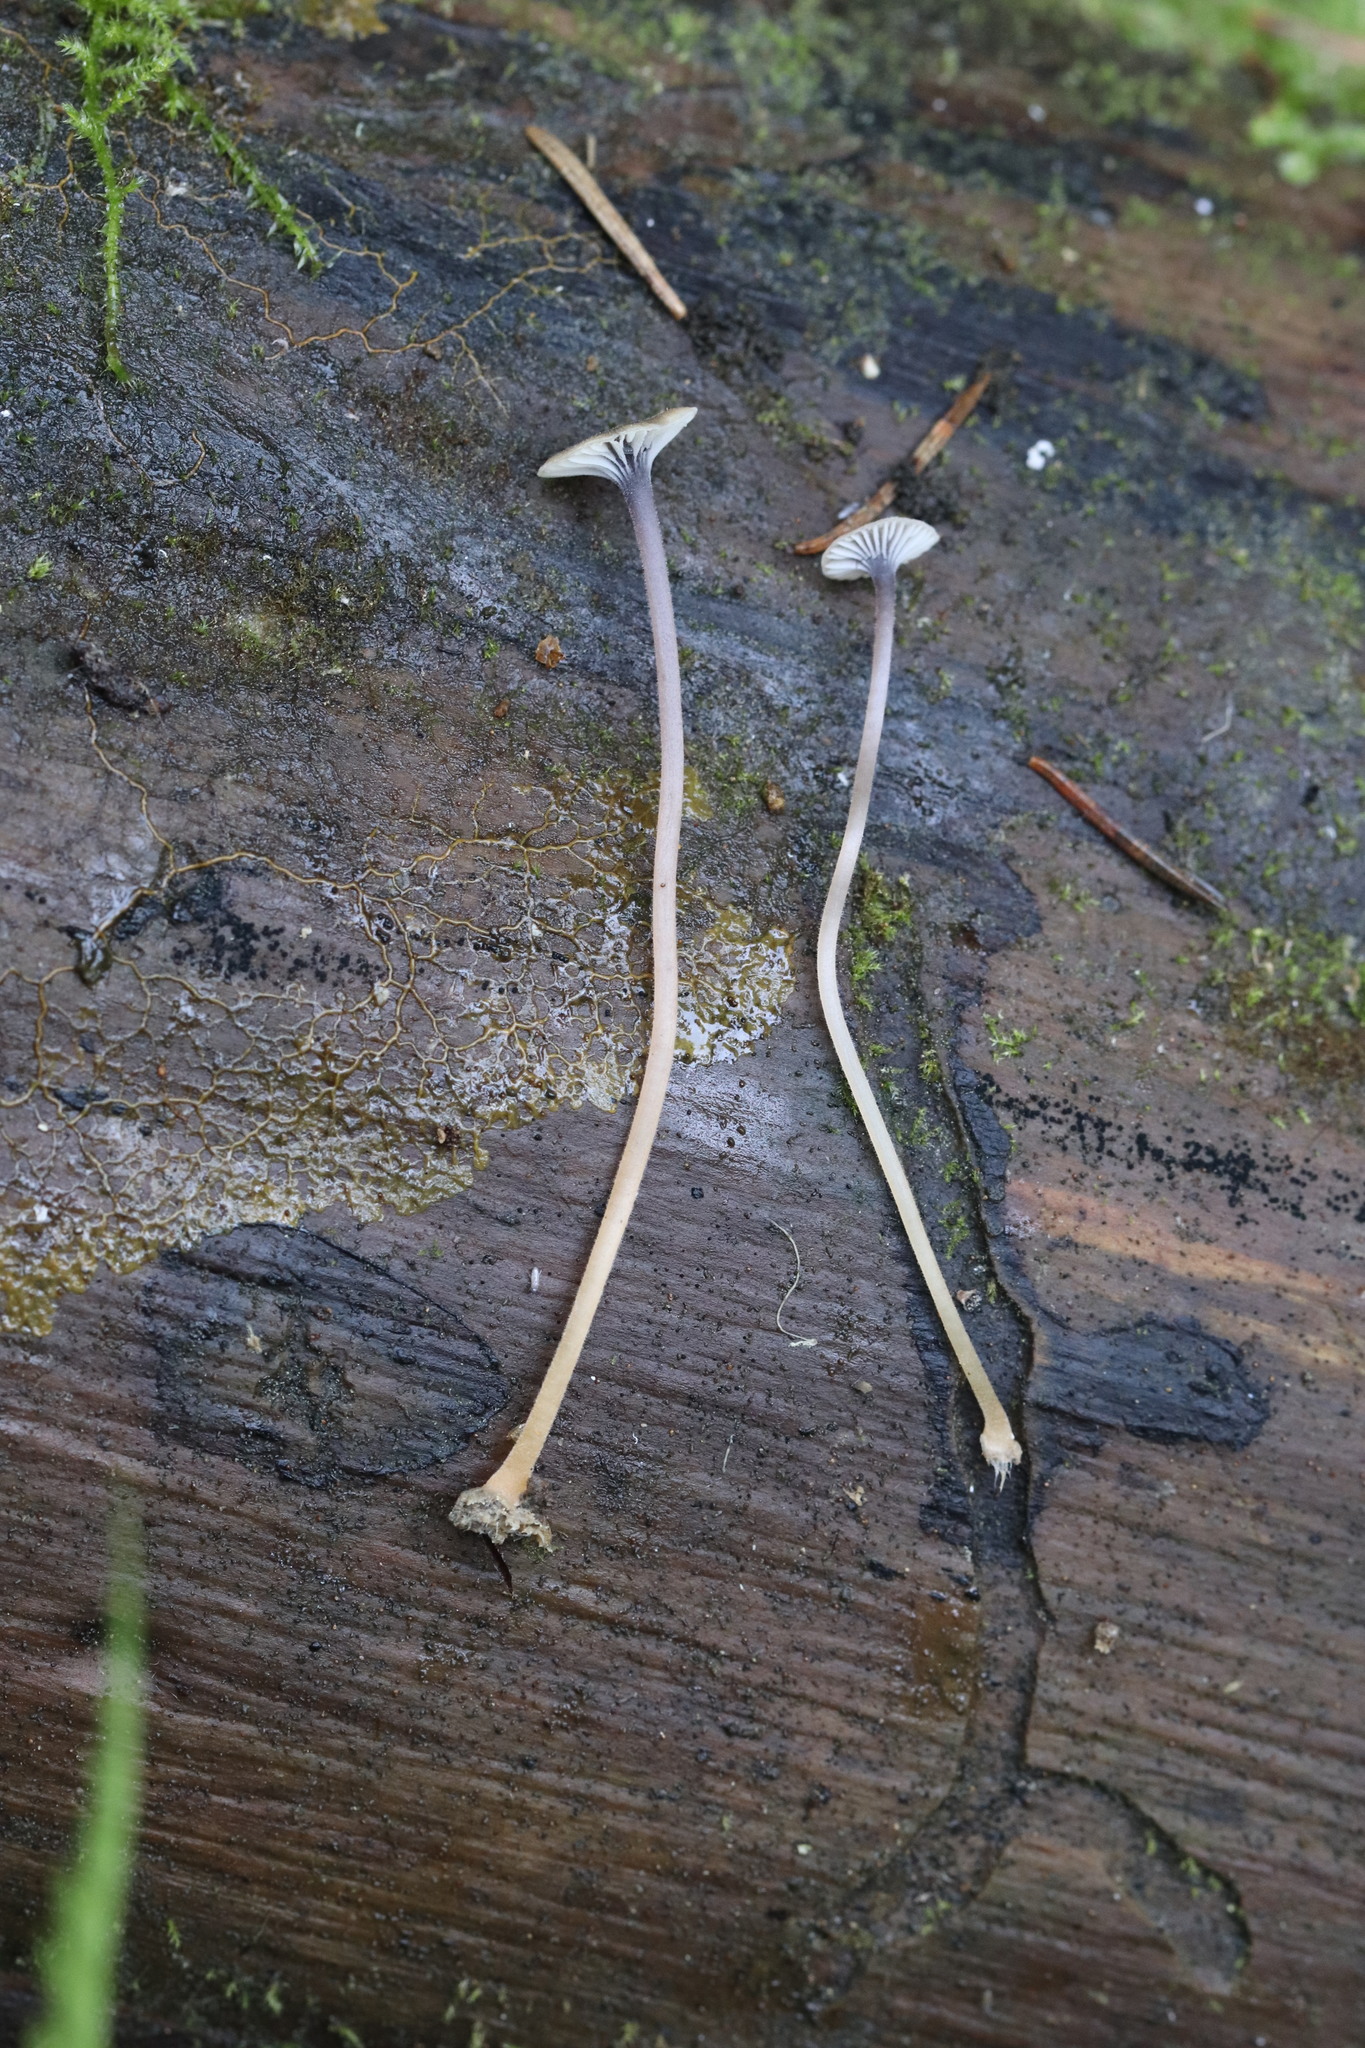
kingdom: Fungi
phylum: Basidiomycota
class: Agaricomycetes
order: Hymenochaetales
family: Rickenellaceae
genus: Rickenella
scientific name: Rickenella swartzii
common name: Collared mosscap
